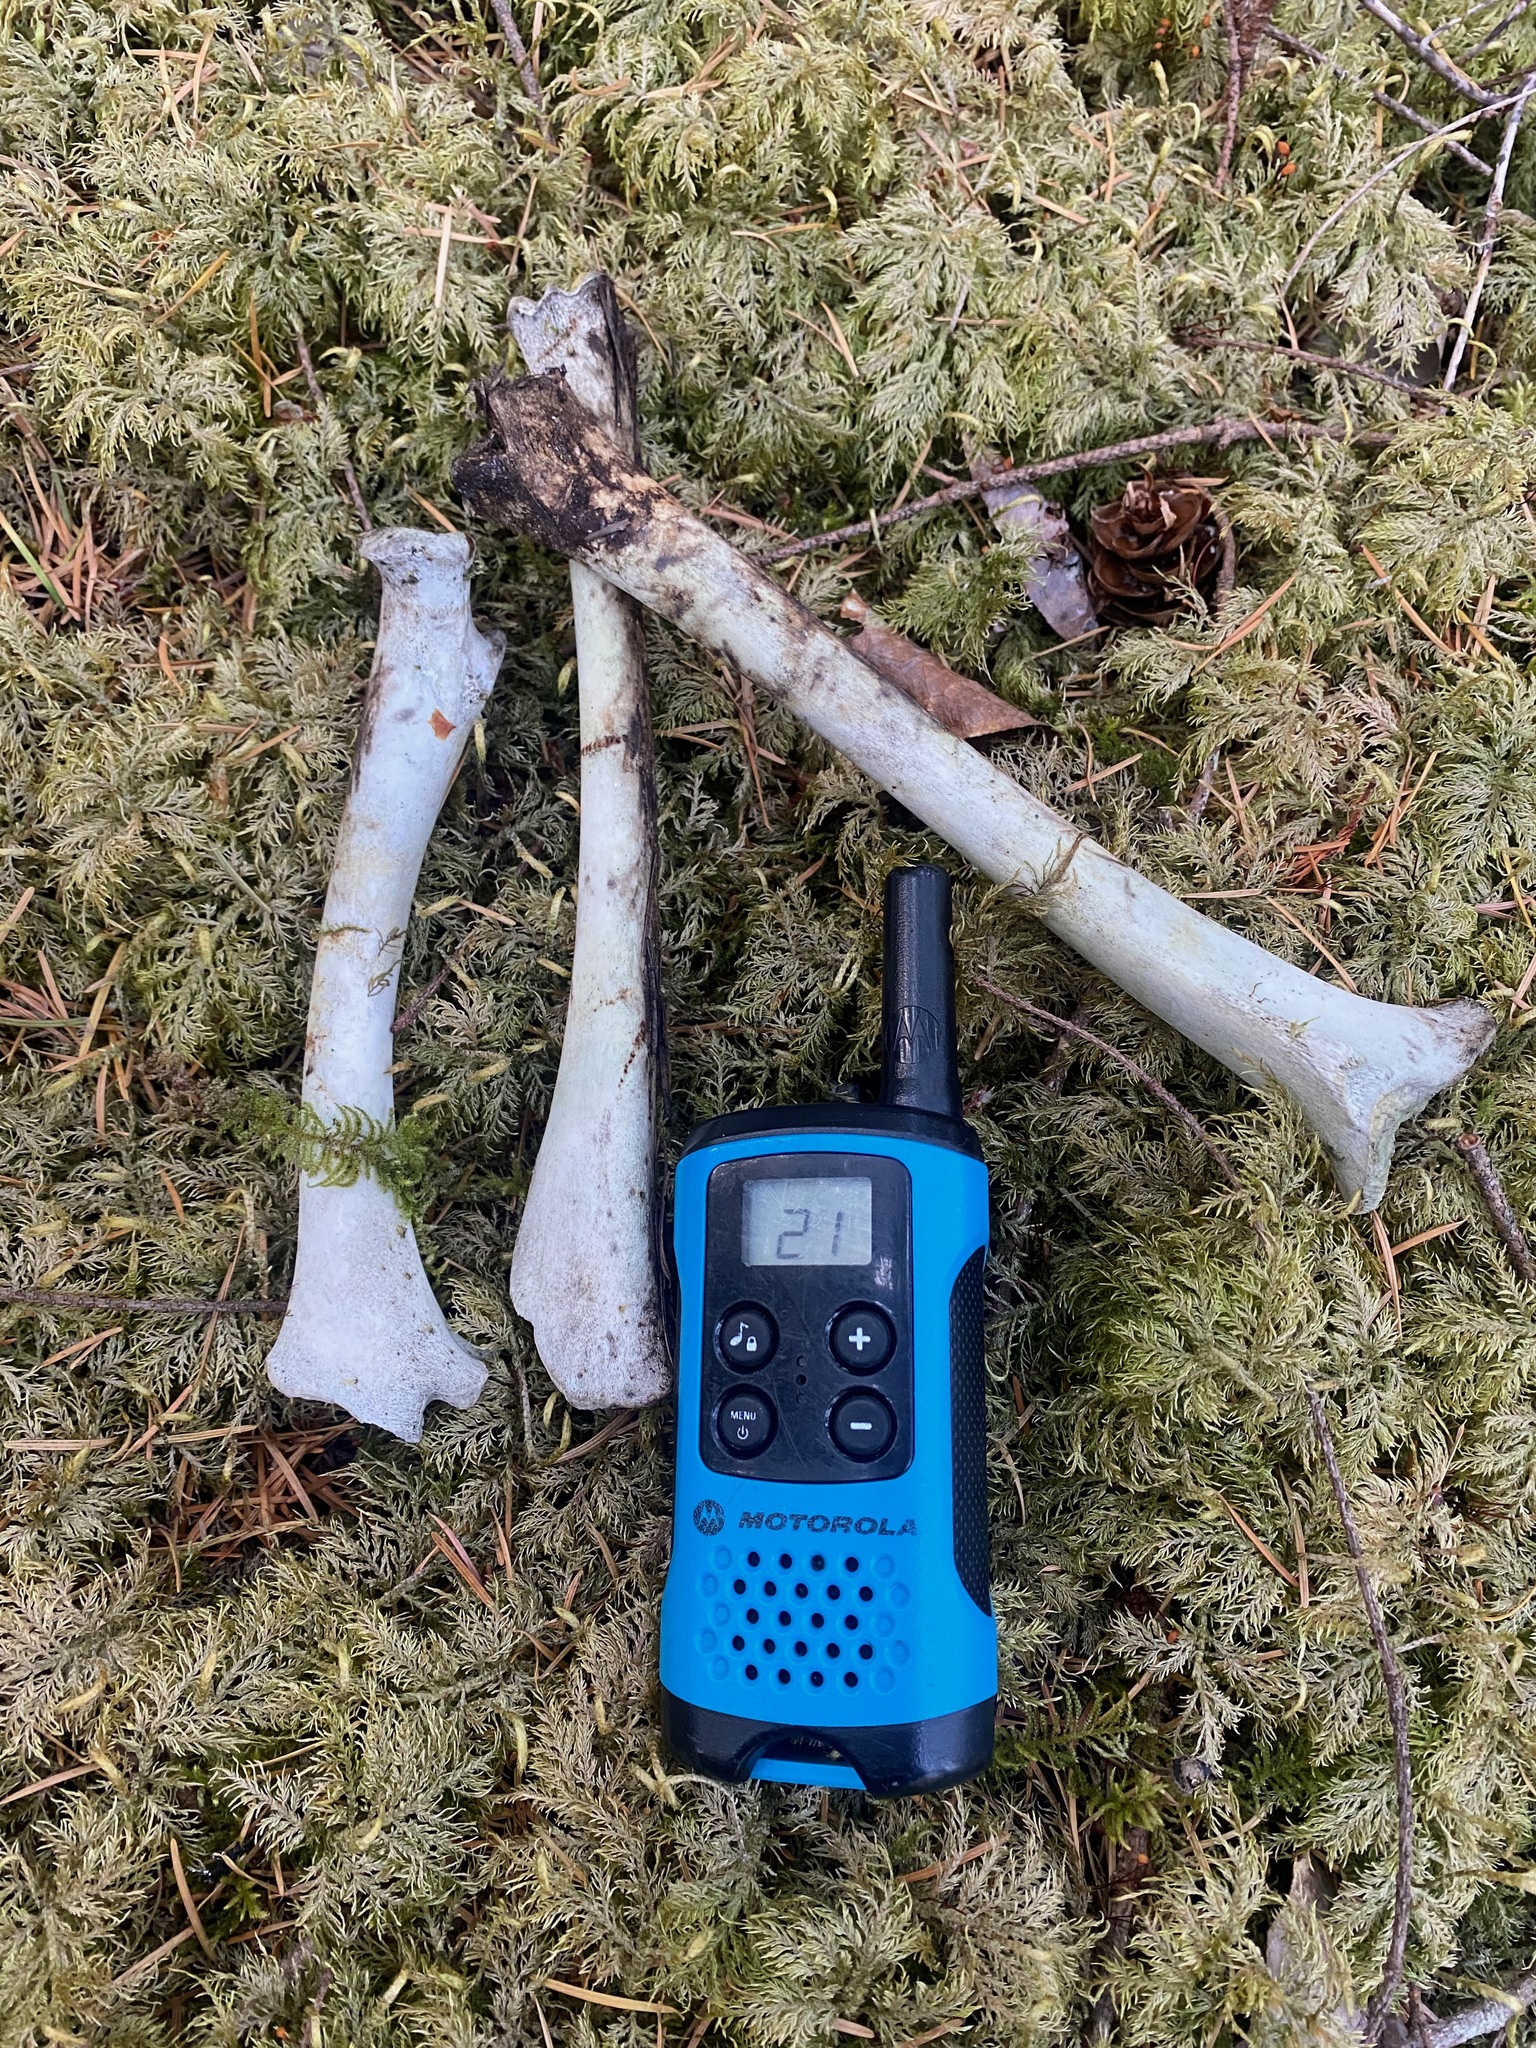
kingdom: Animalia
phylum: Chordata
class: Mammalia
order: Artiodactyla
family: Cervidae
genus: Odocoileus
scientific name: Odocoileus hemionus
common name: Mule deer
